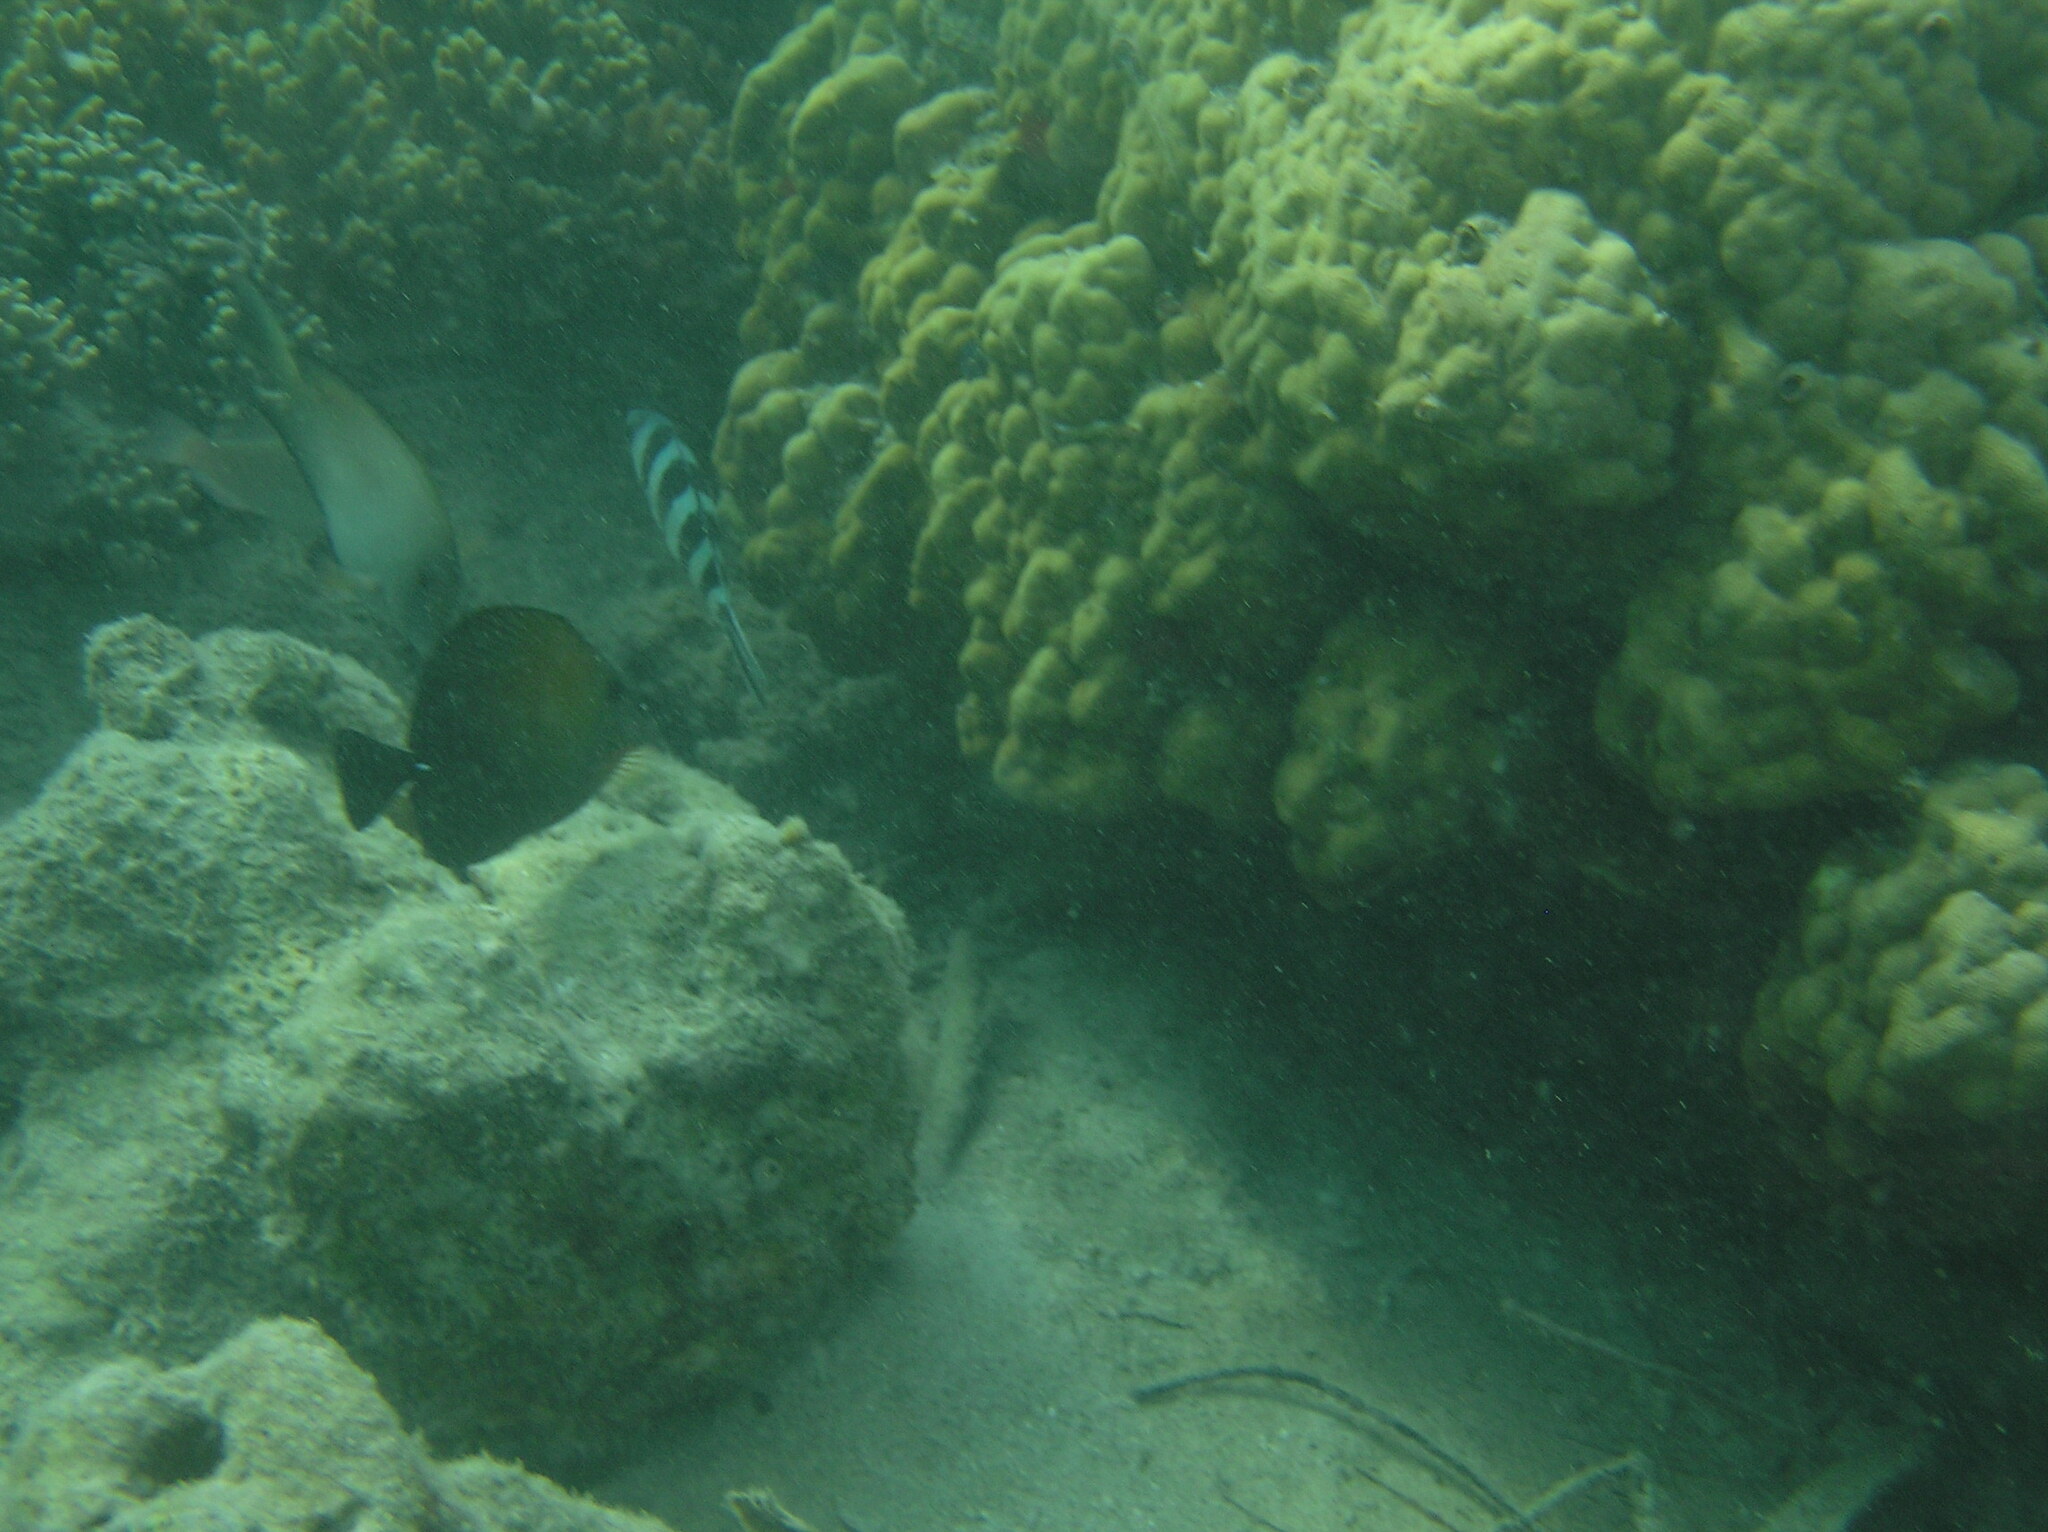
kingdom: Animalia
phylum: Chordata
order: Perciformes
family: Pomacentridae
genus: Abudefduf
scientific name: Abudefduf sexfasciatus
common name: Scissortail sergeant
